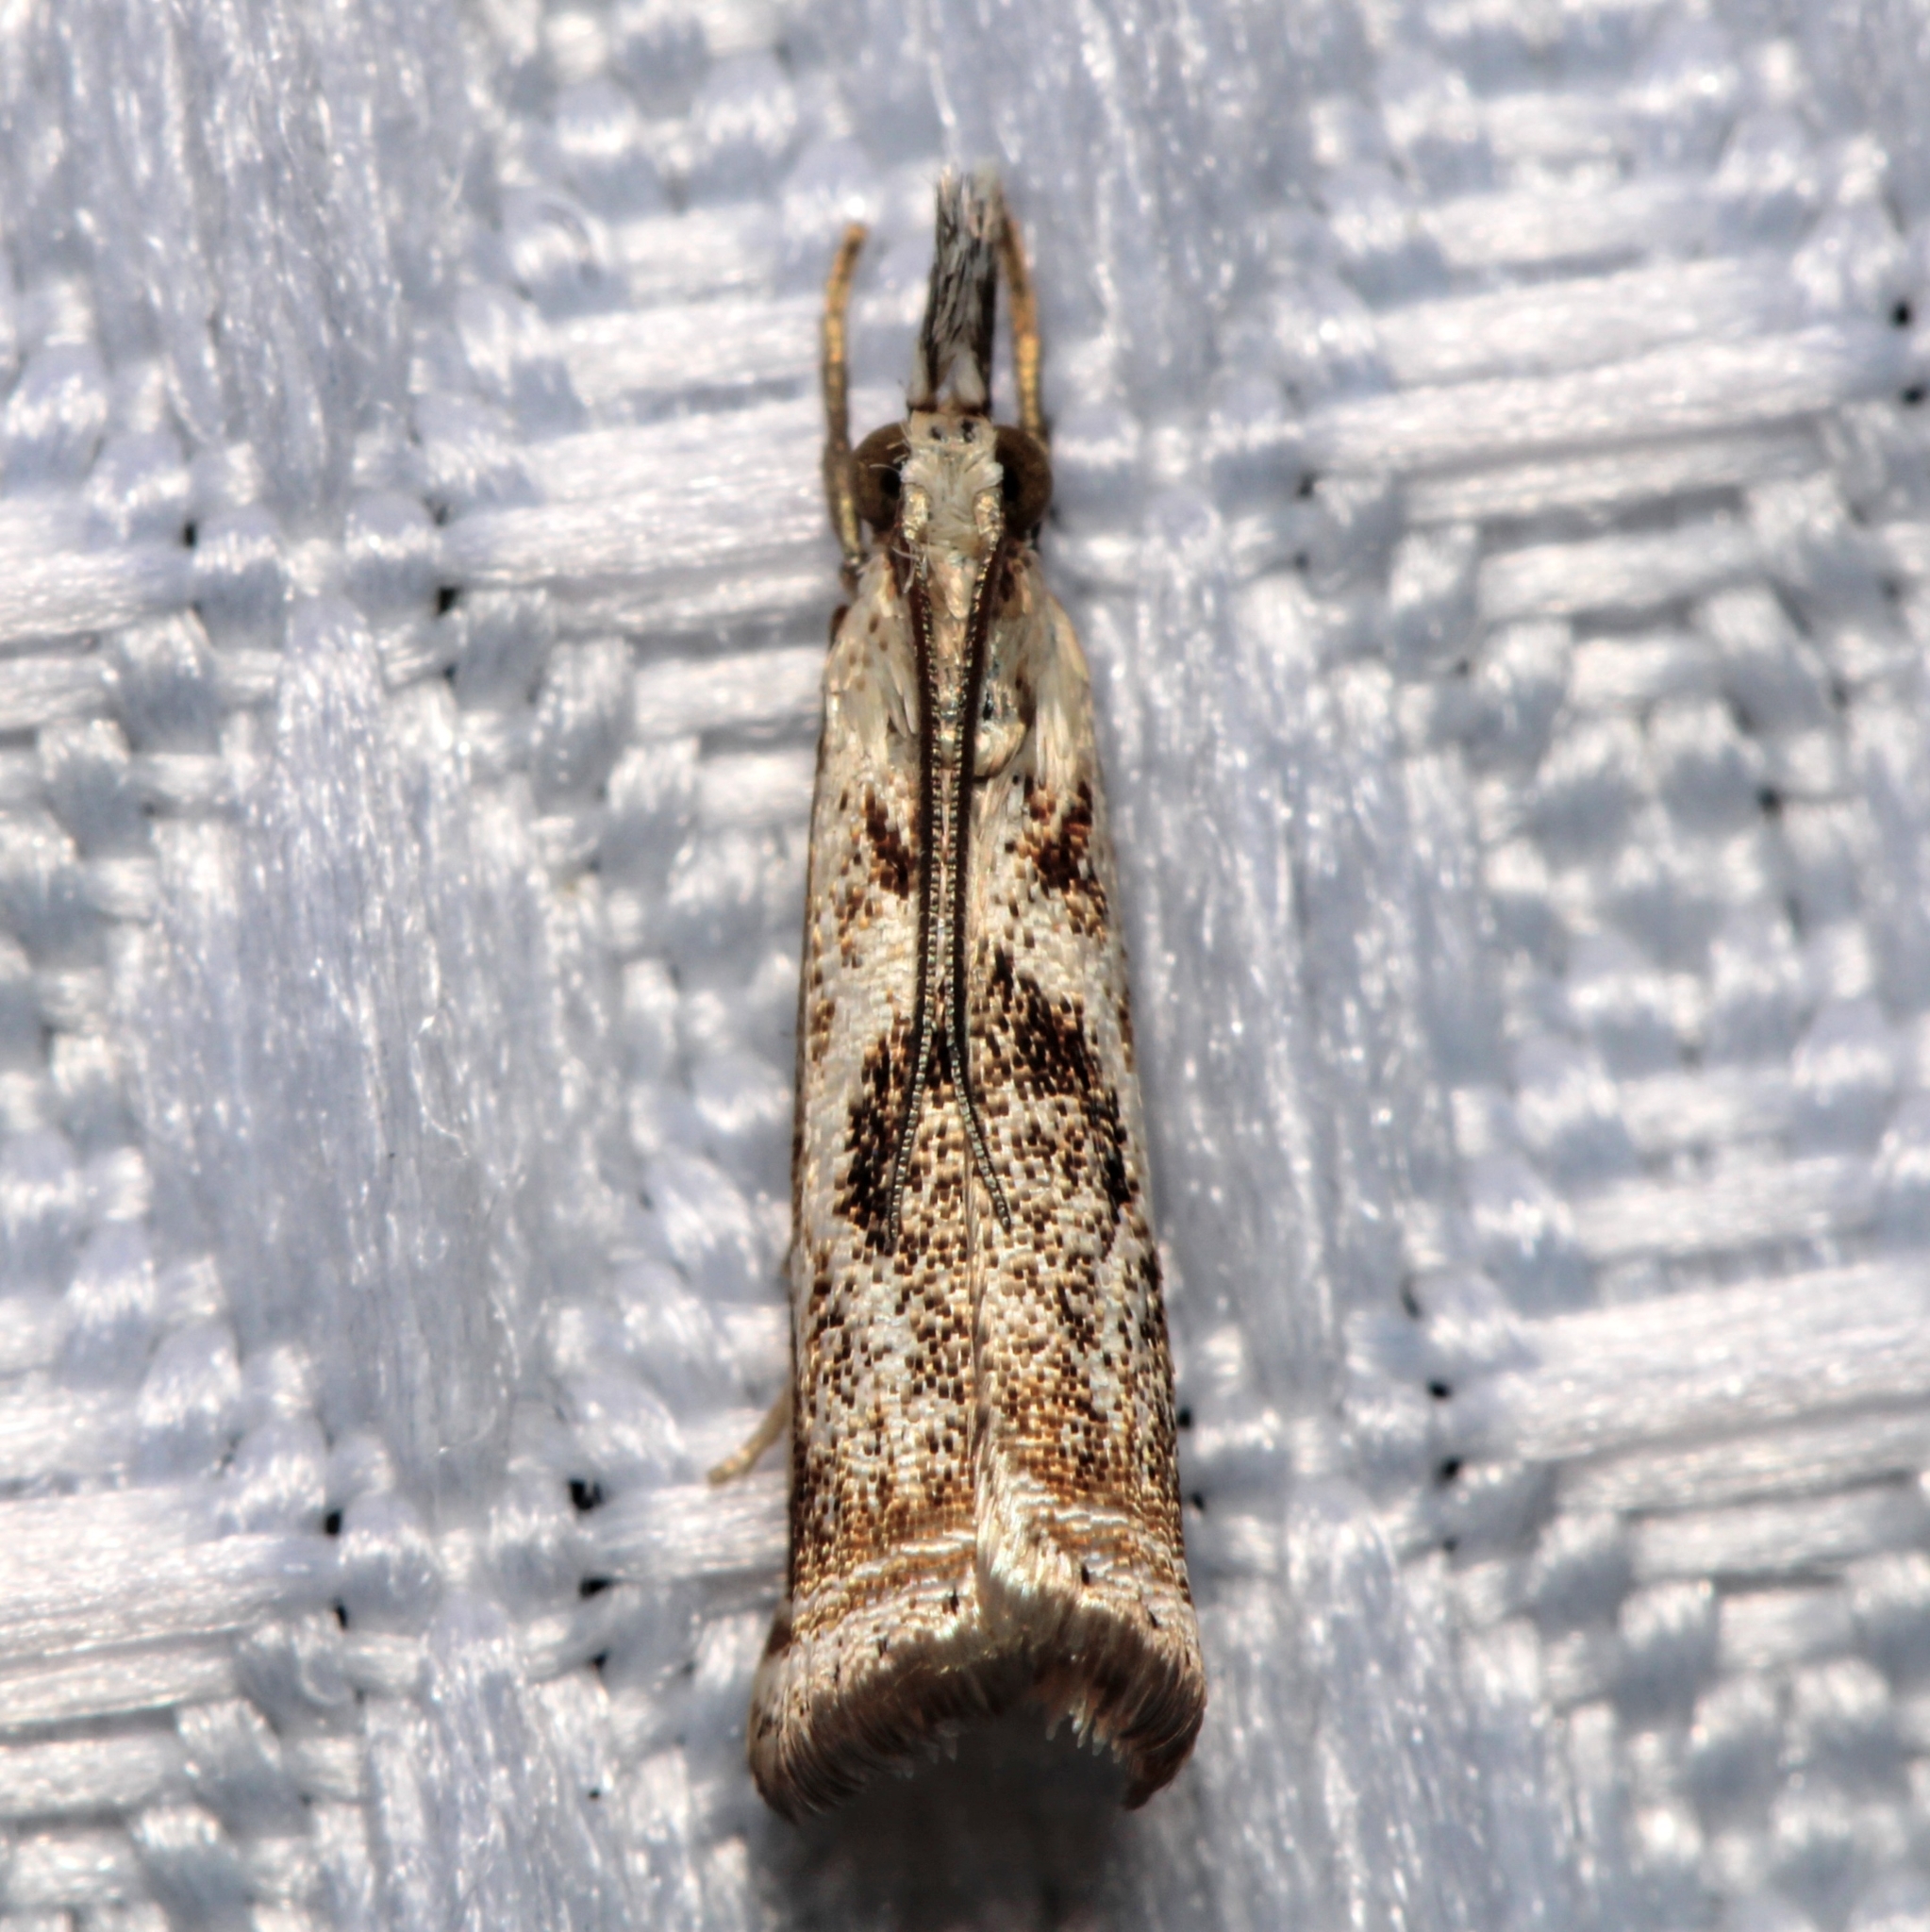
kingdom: Animalia
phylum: Arthropoda
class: Insecta
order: Lepidoptera
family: Crambidae
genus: Microcrambus
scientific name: Microcrambus elegans
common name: Elegant grass-veneer
